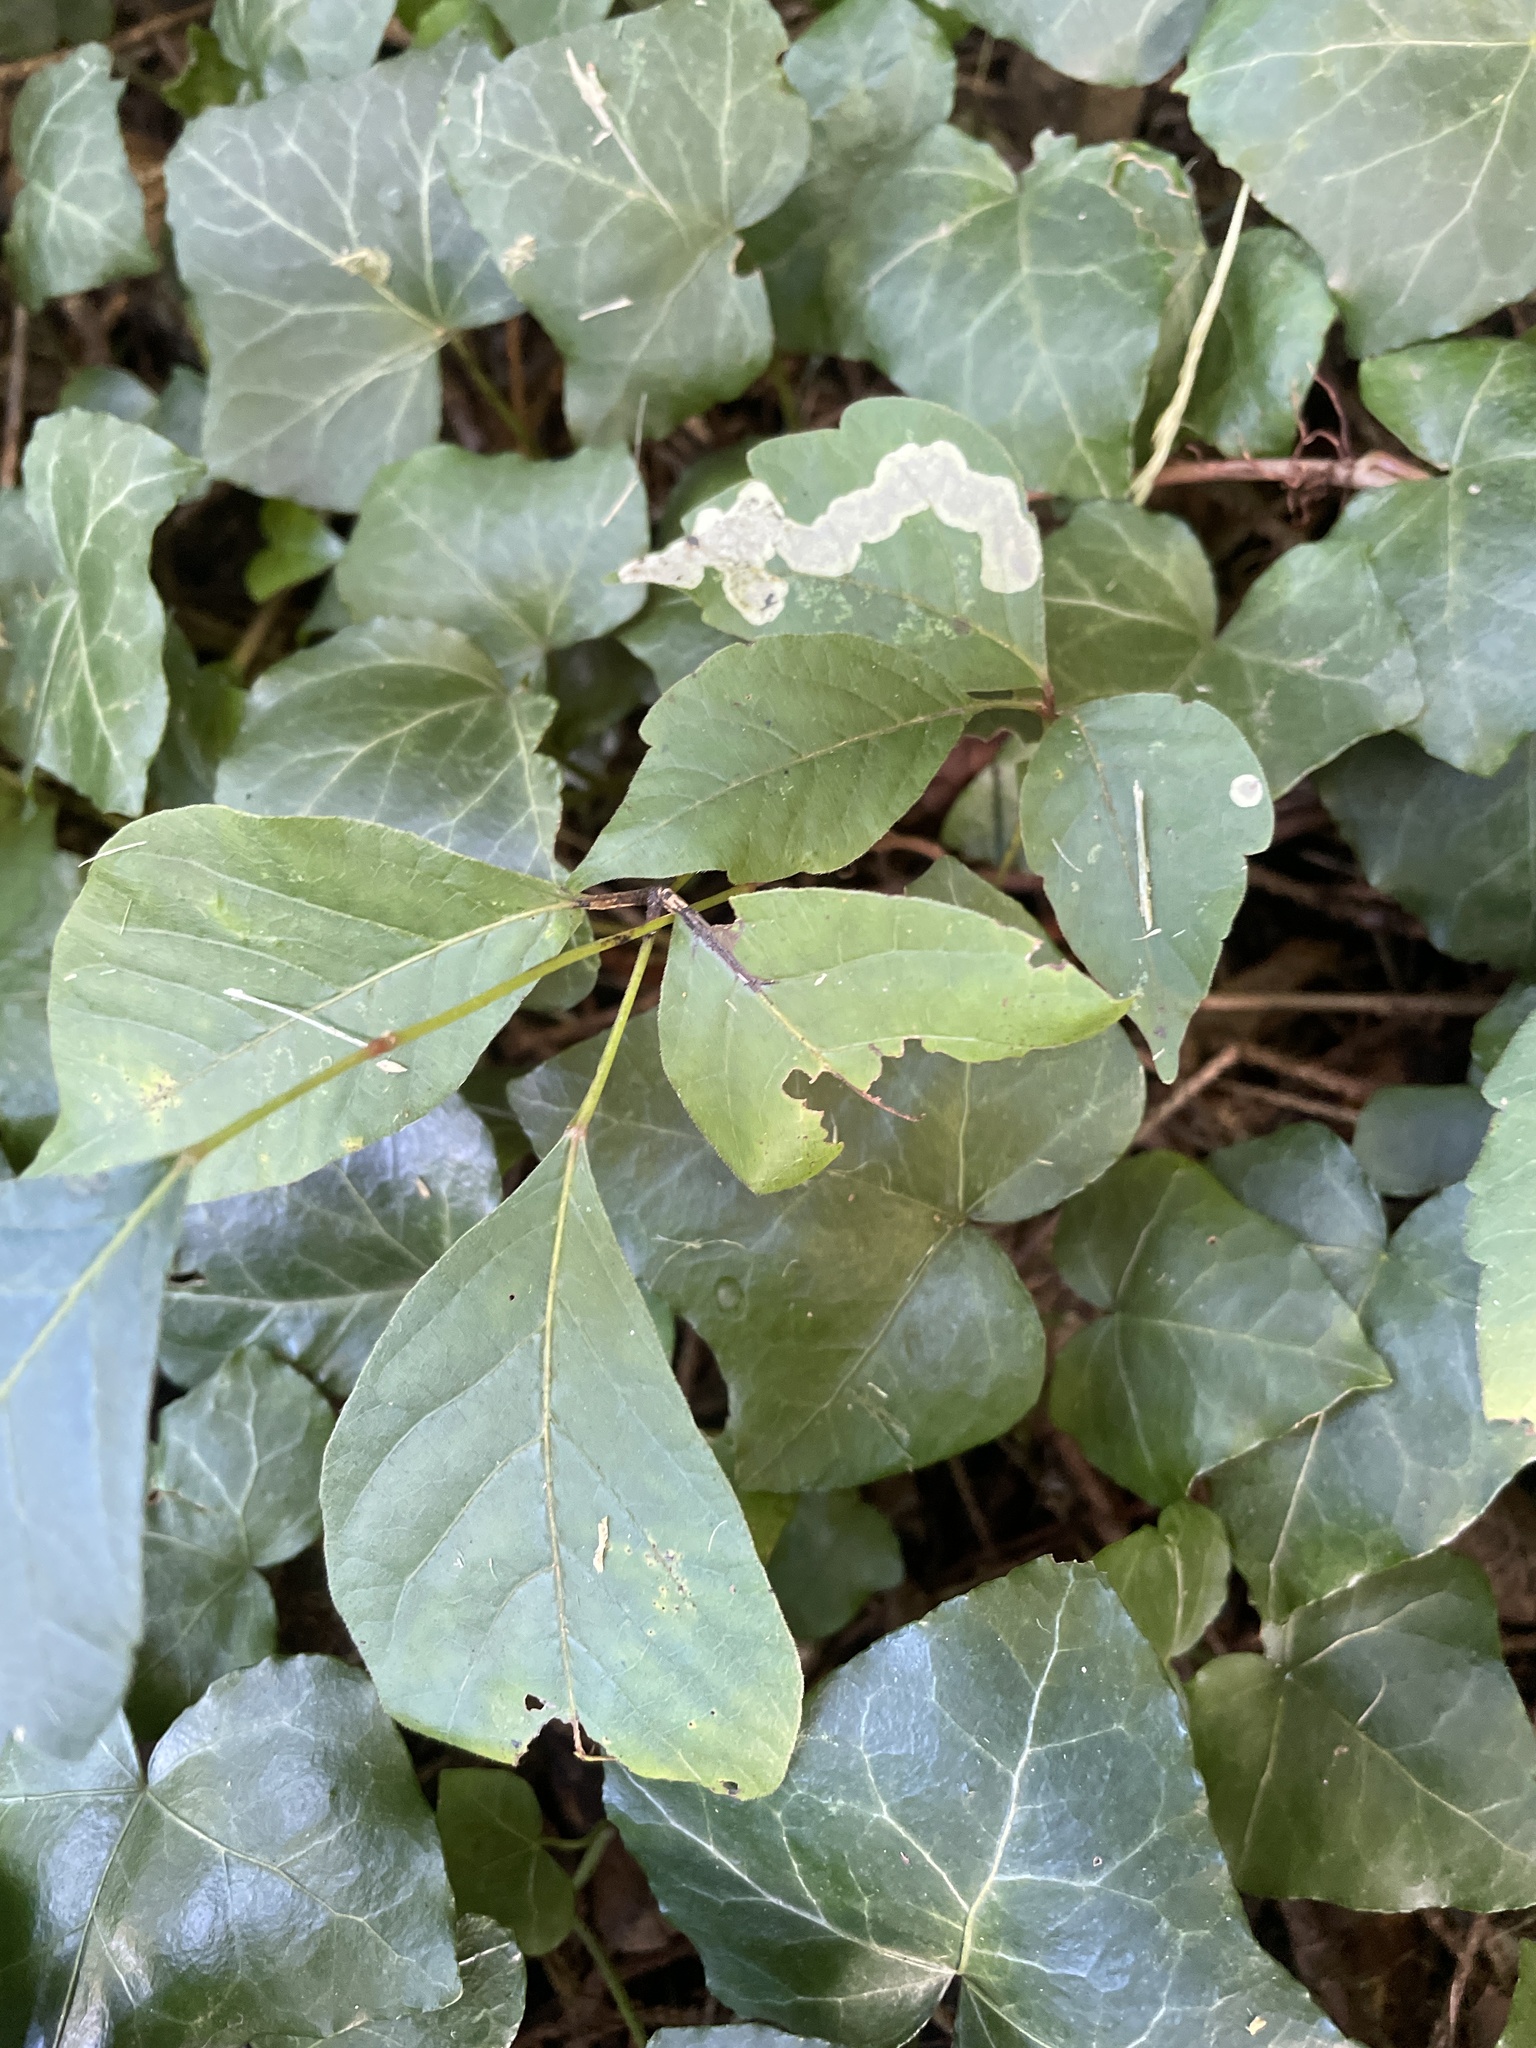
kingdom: Animalia
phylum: Arthropoda
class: Insecta
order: Lepidoptera
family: Gracillariidae
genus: Cameraria
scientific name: Cameraria guttifinitella
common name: Poison ivy leaf-miner moth
